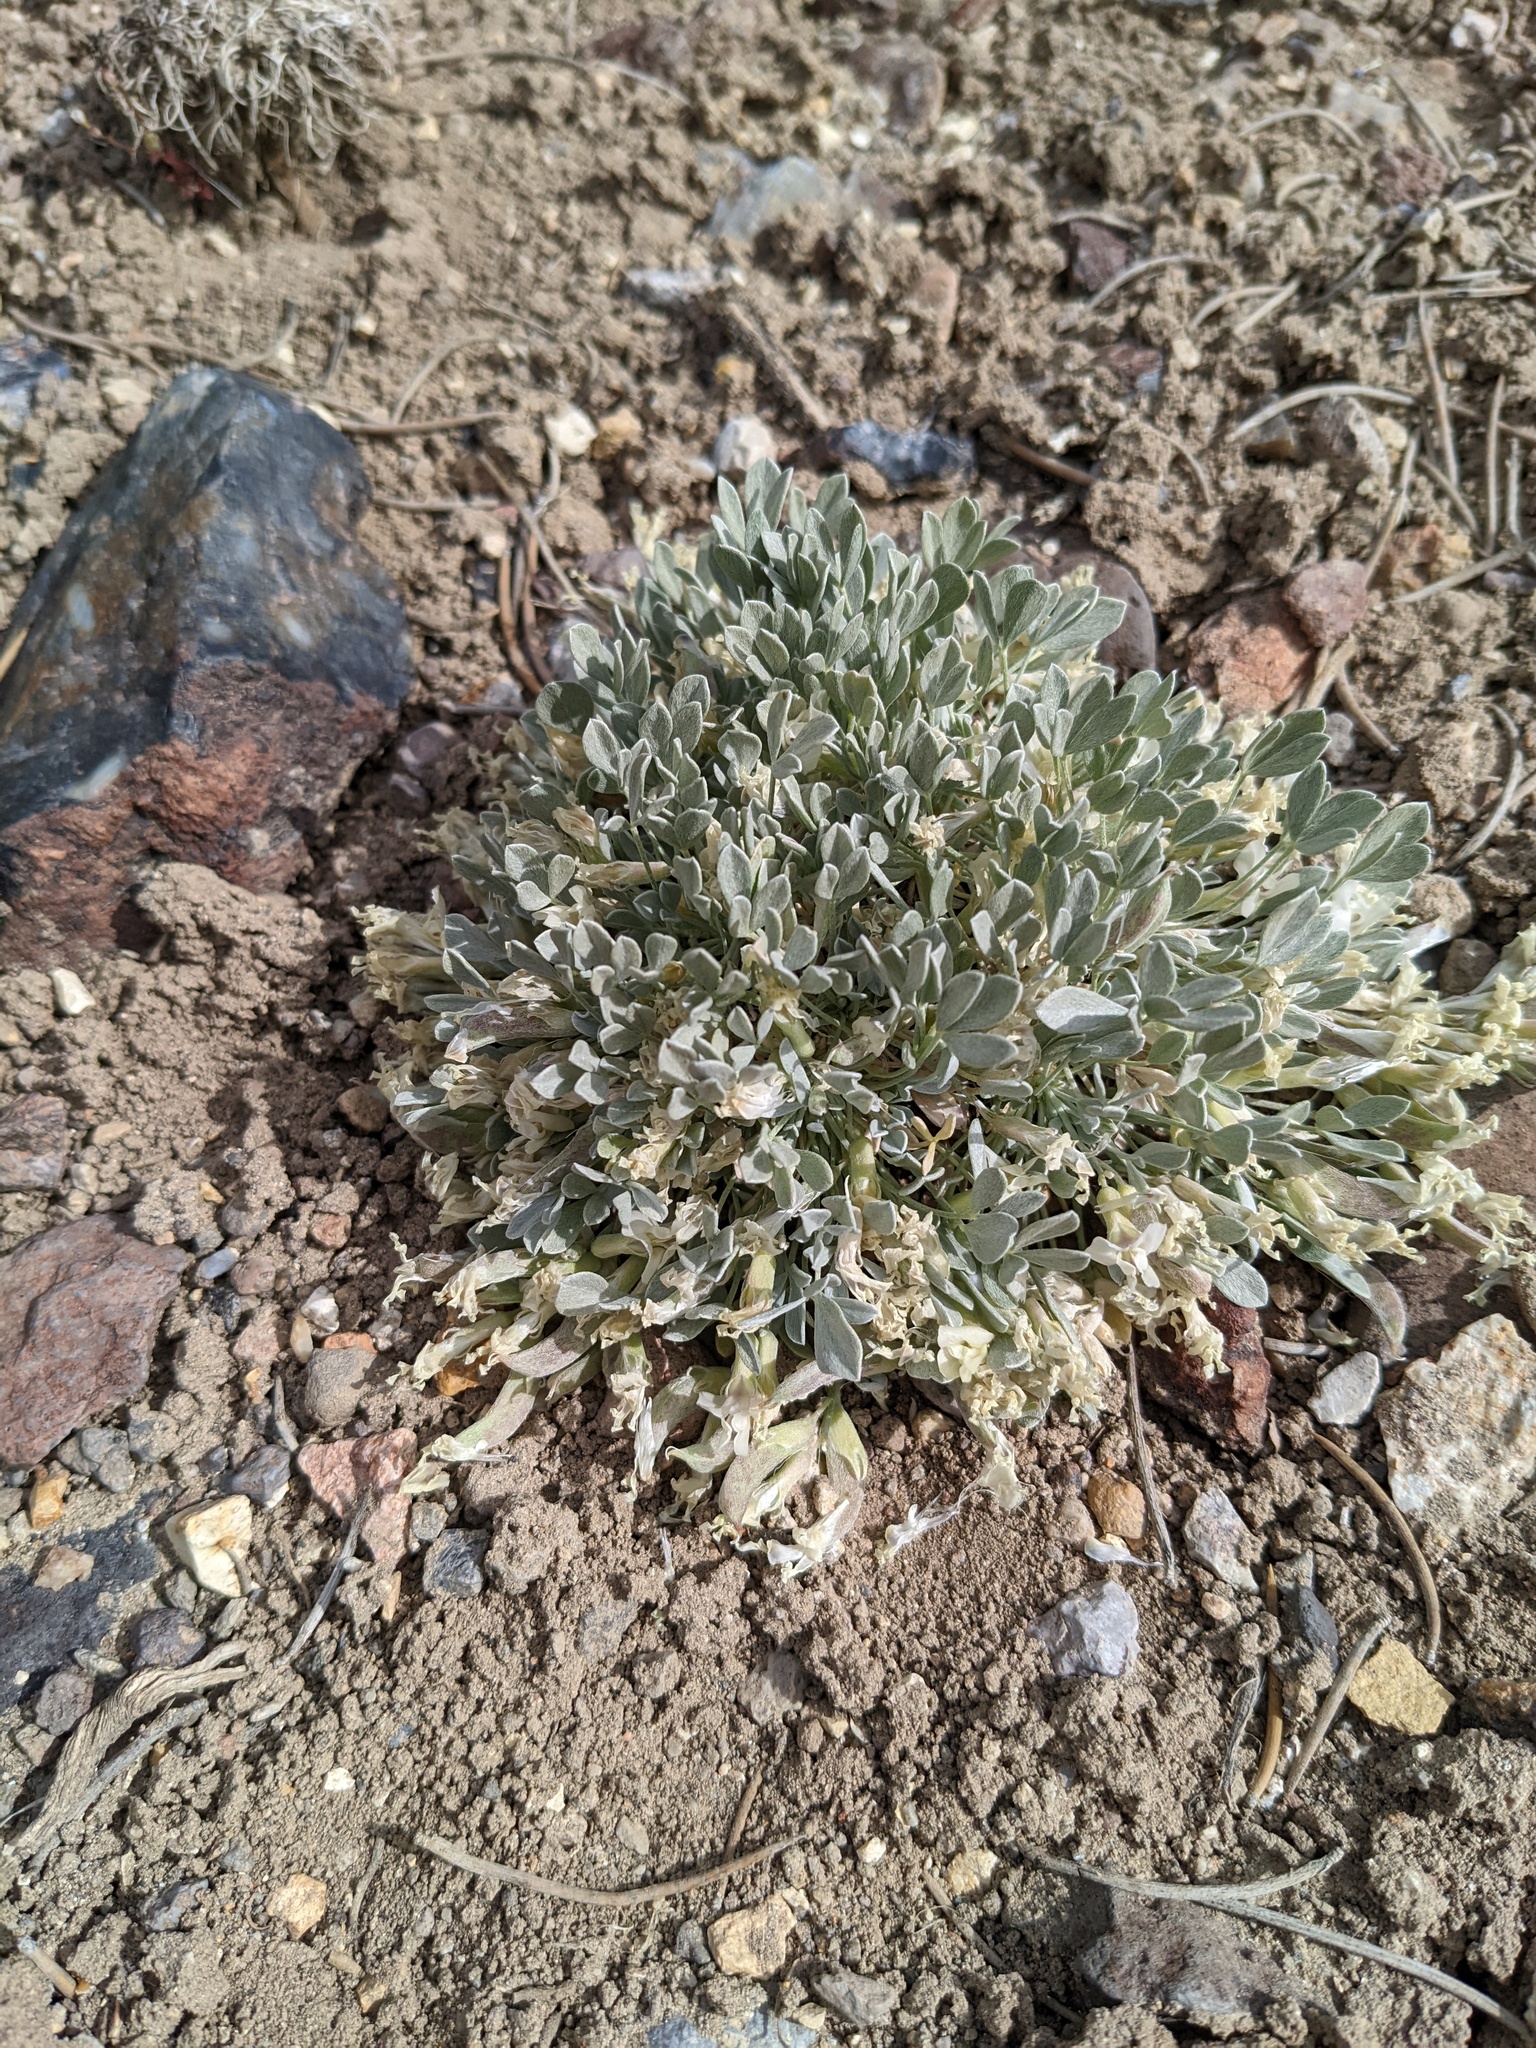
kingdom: Plantae
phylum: Tracheophyta
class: Magnoliopsida
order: Fabales
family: Fabaceae
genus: Astragalus
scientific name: Astragalus calycosus
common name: King's milkvetch
